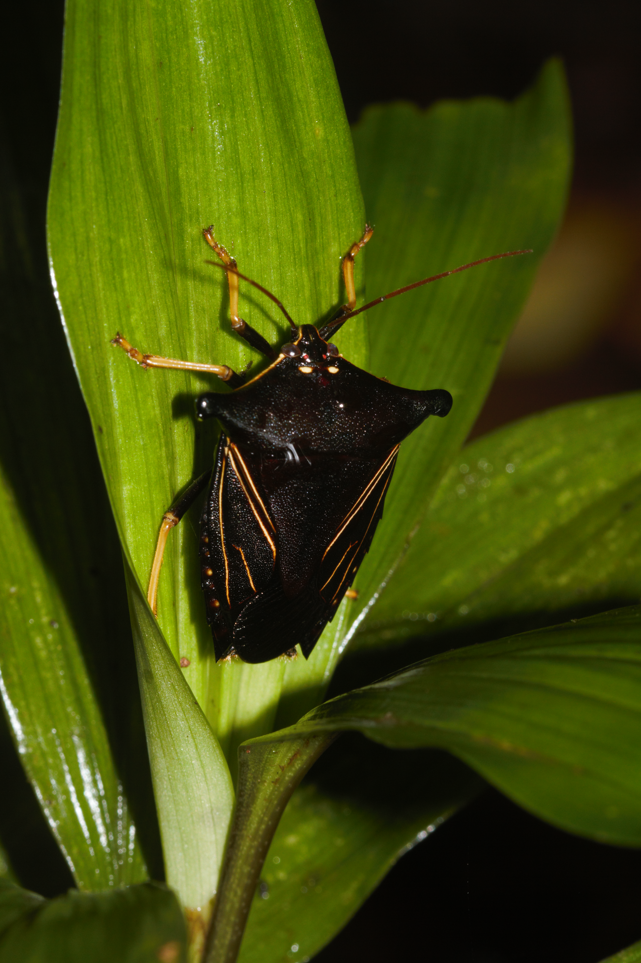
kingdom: Animalia
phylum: Arthropoda
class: Insecta
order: Hemiptera
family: Pentatomidae
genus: Edessa
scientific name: Edessa
